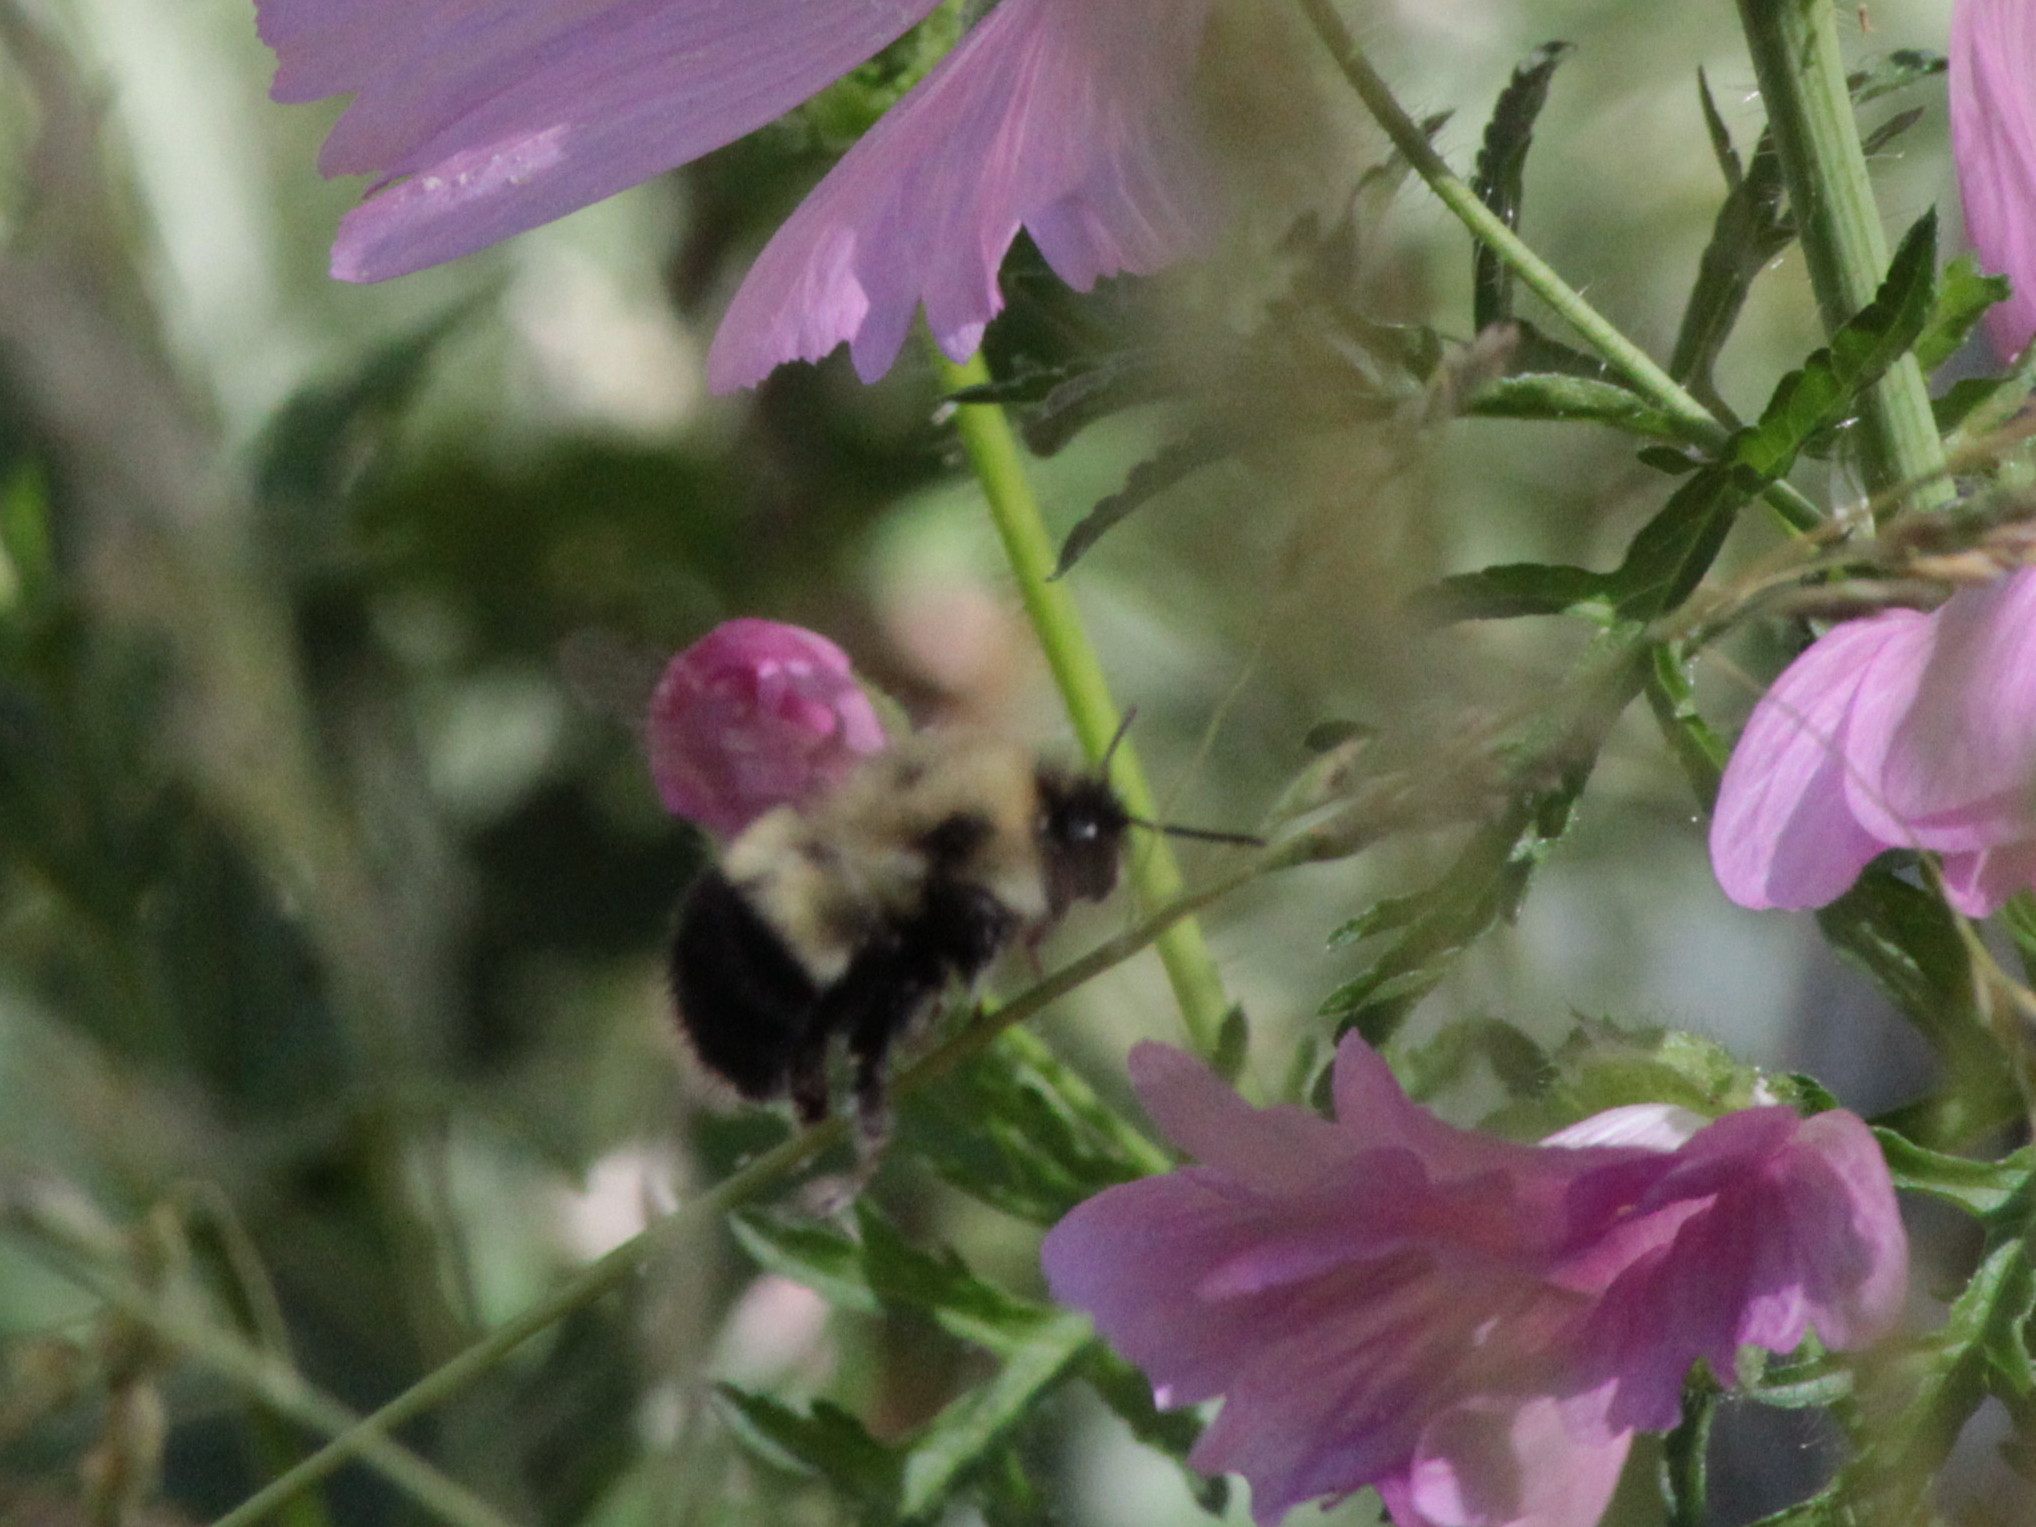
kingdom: Animalia
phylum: Arthropoda
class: Insecta
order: Hymenoptera
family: Apidae
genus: Bombus
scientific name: Bombus perplexus
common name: Confusing bumble bee
